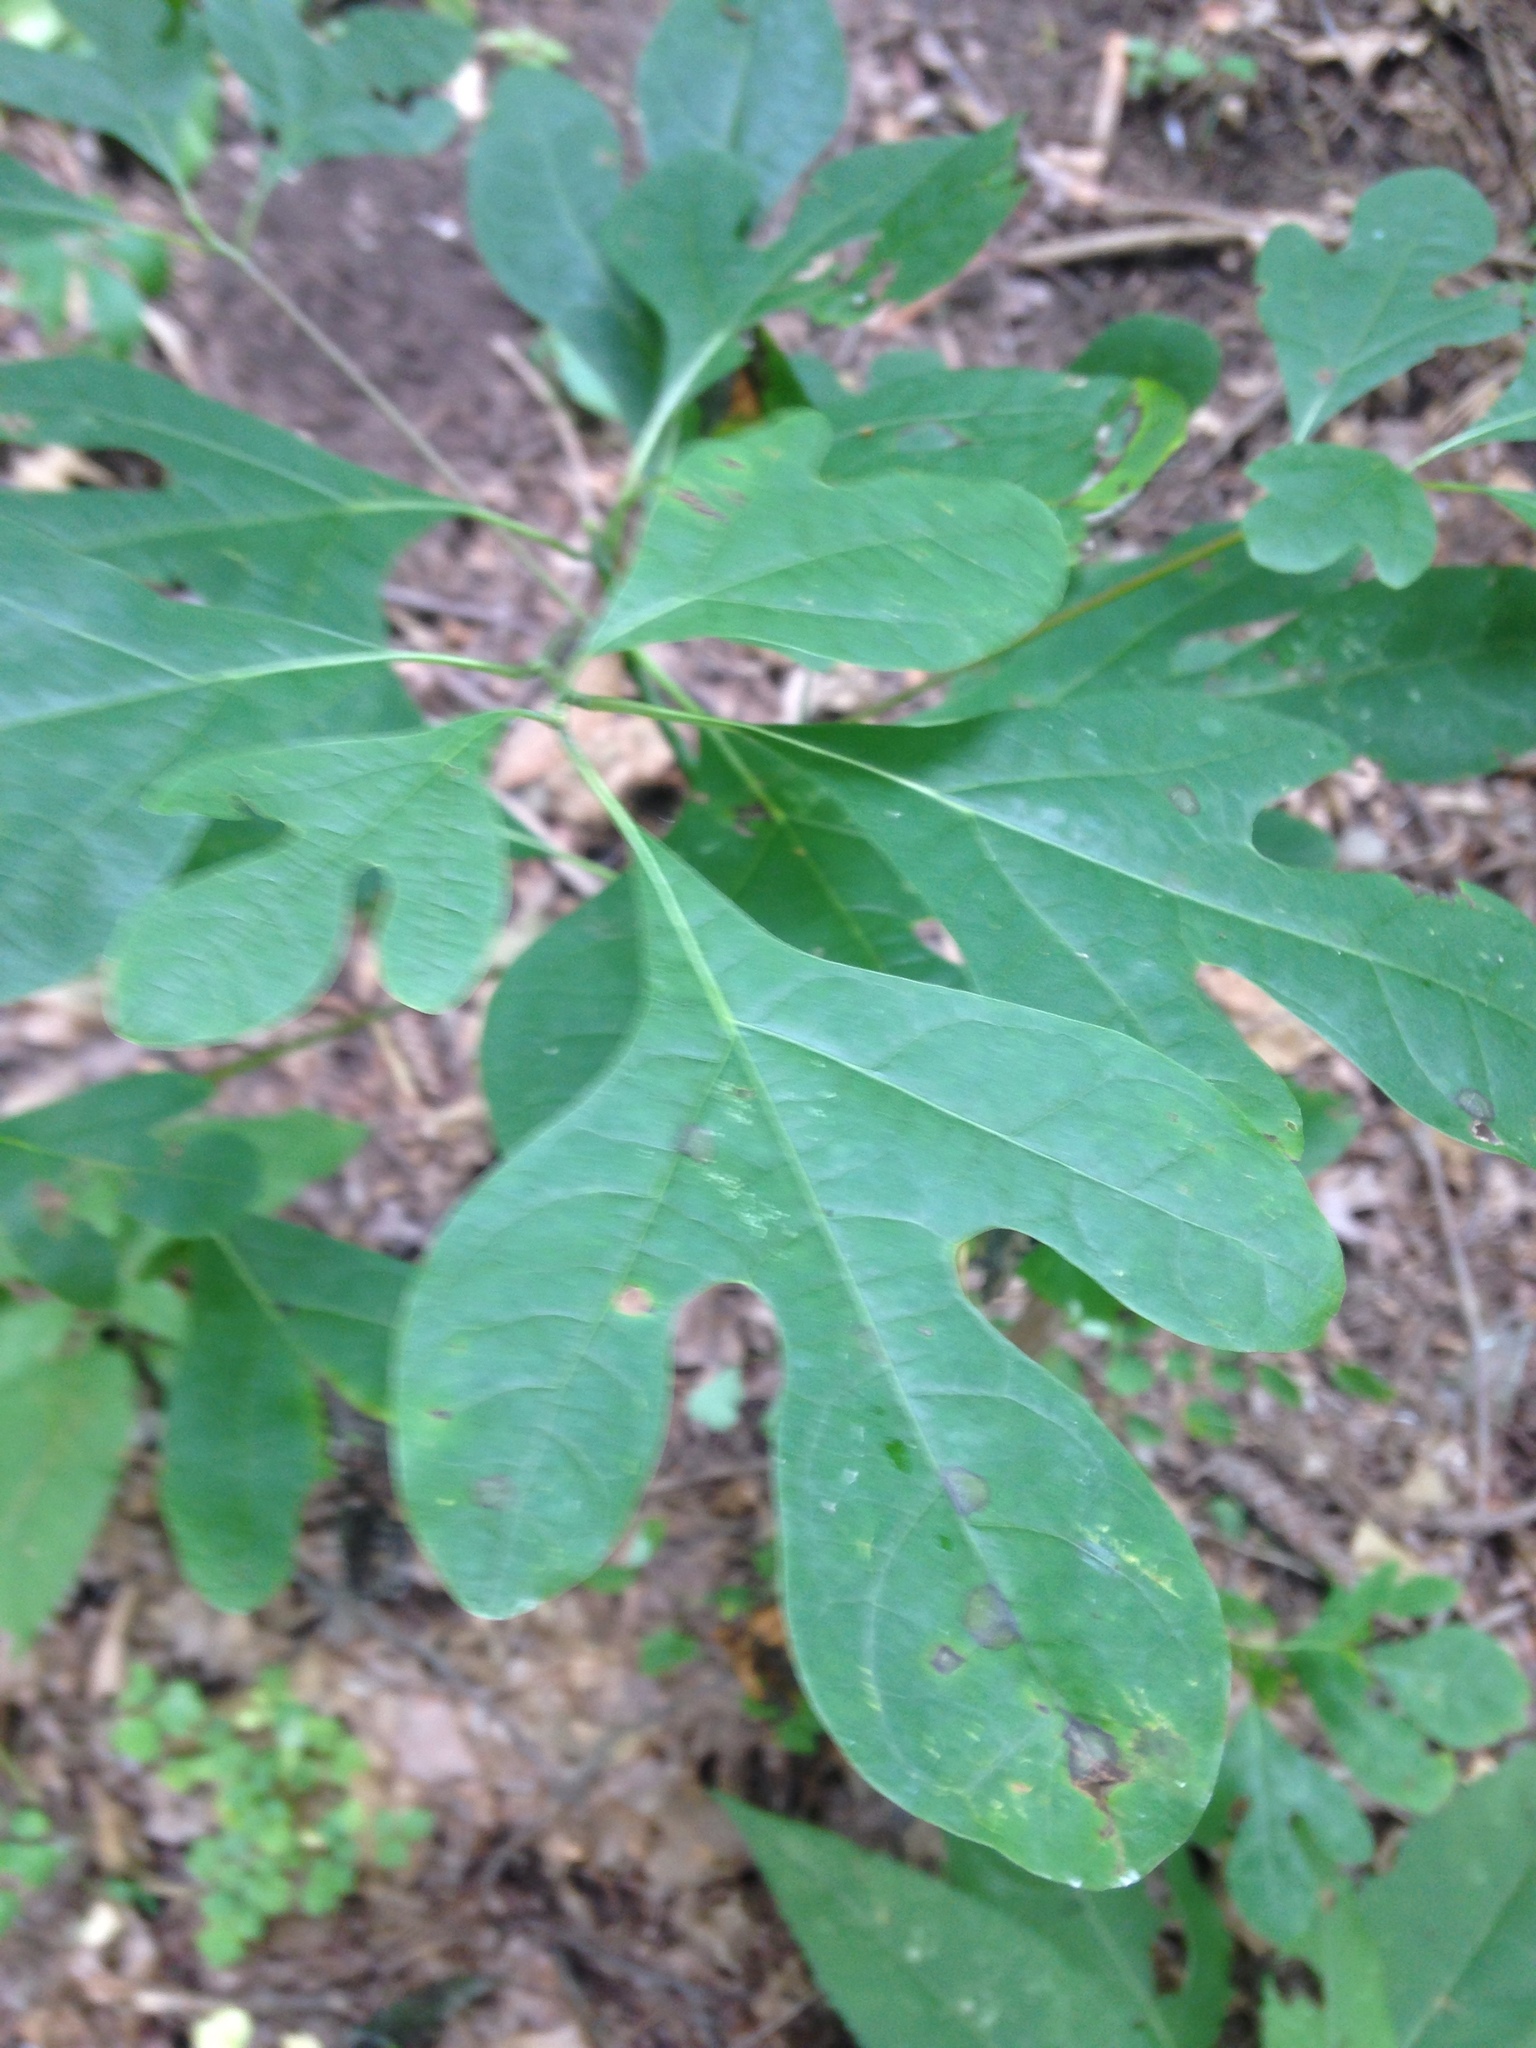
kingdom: Plantae
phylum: Tracheophyta
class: Magnoliopsida
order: Laurales
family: Lauraceae
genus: Sassafras
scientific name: Sassafras albidum
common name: Sassafras
